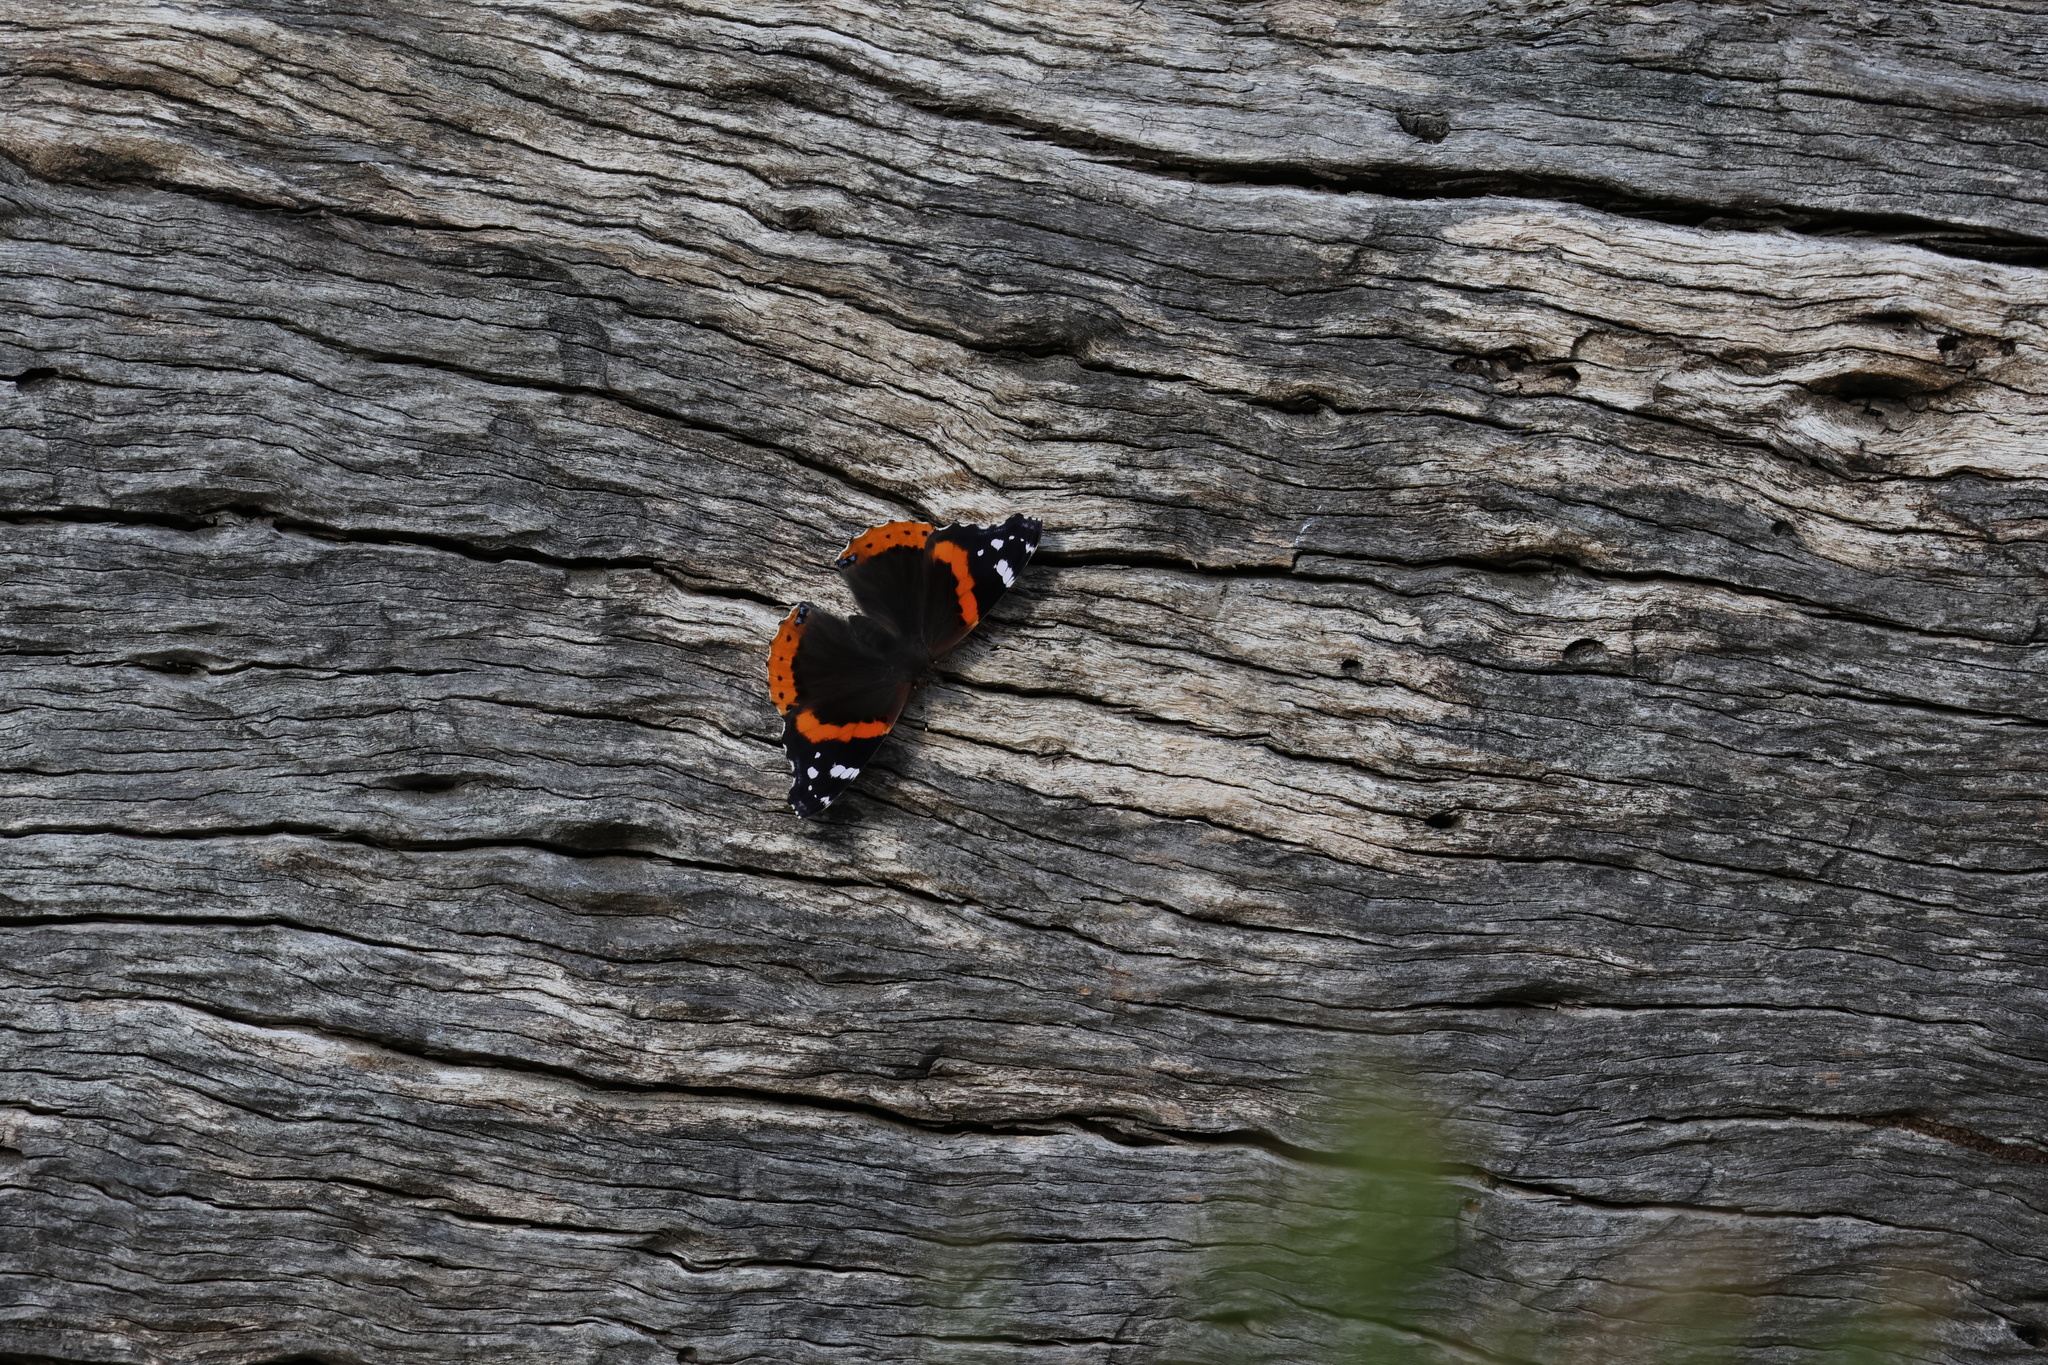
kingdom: Animalia
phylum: Arthropoda
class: Insecta
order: Lepidoptera
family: Nymphalidae
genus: Vanessa
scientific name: Vanessa atalanta
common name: Red admiral
